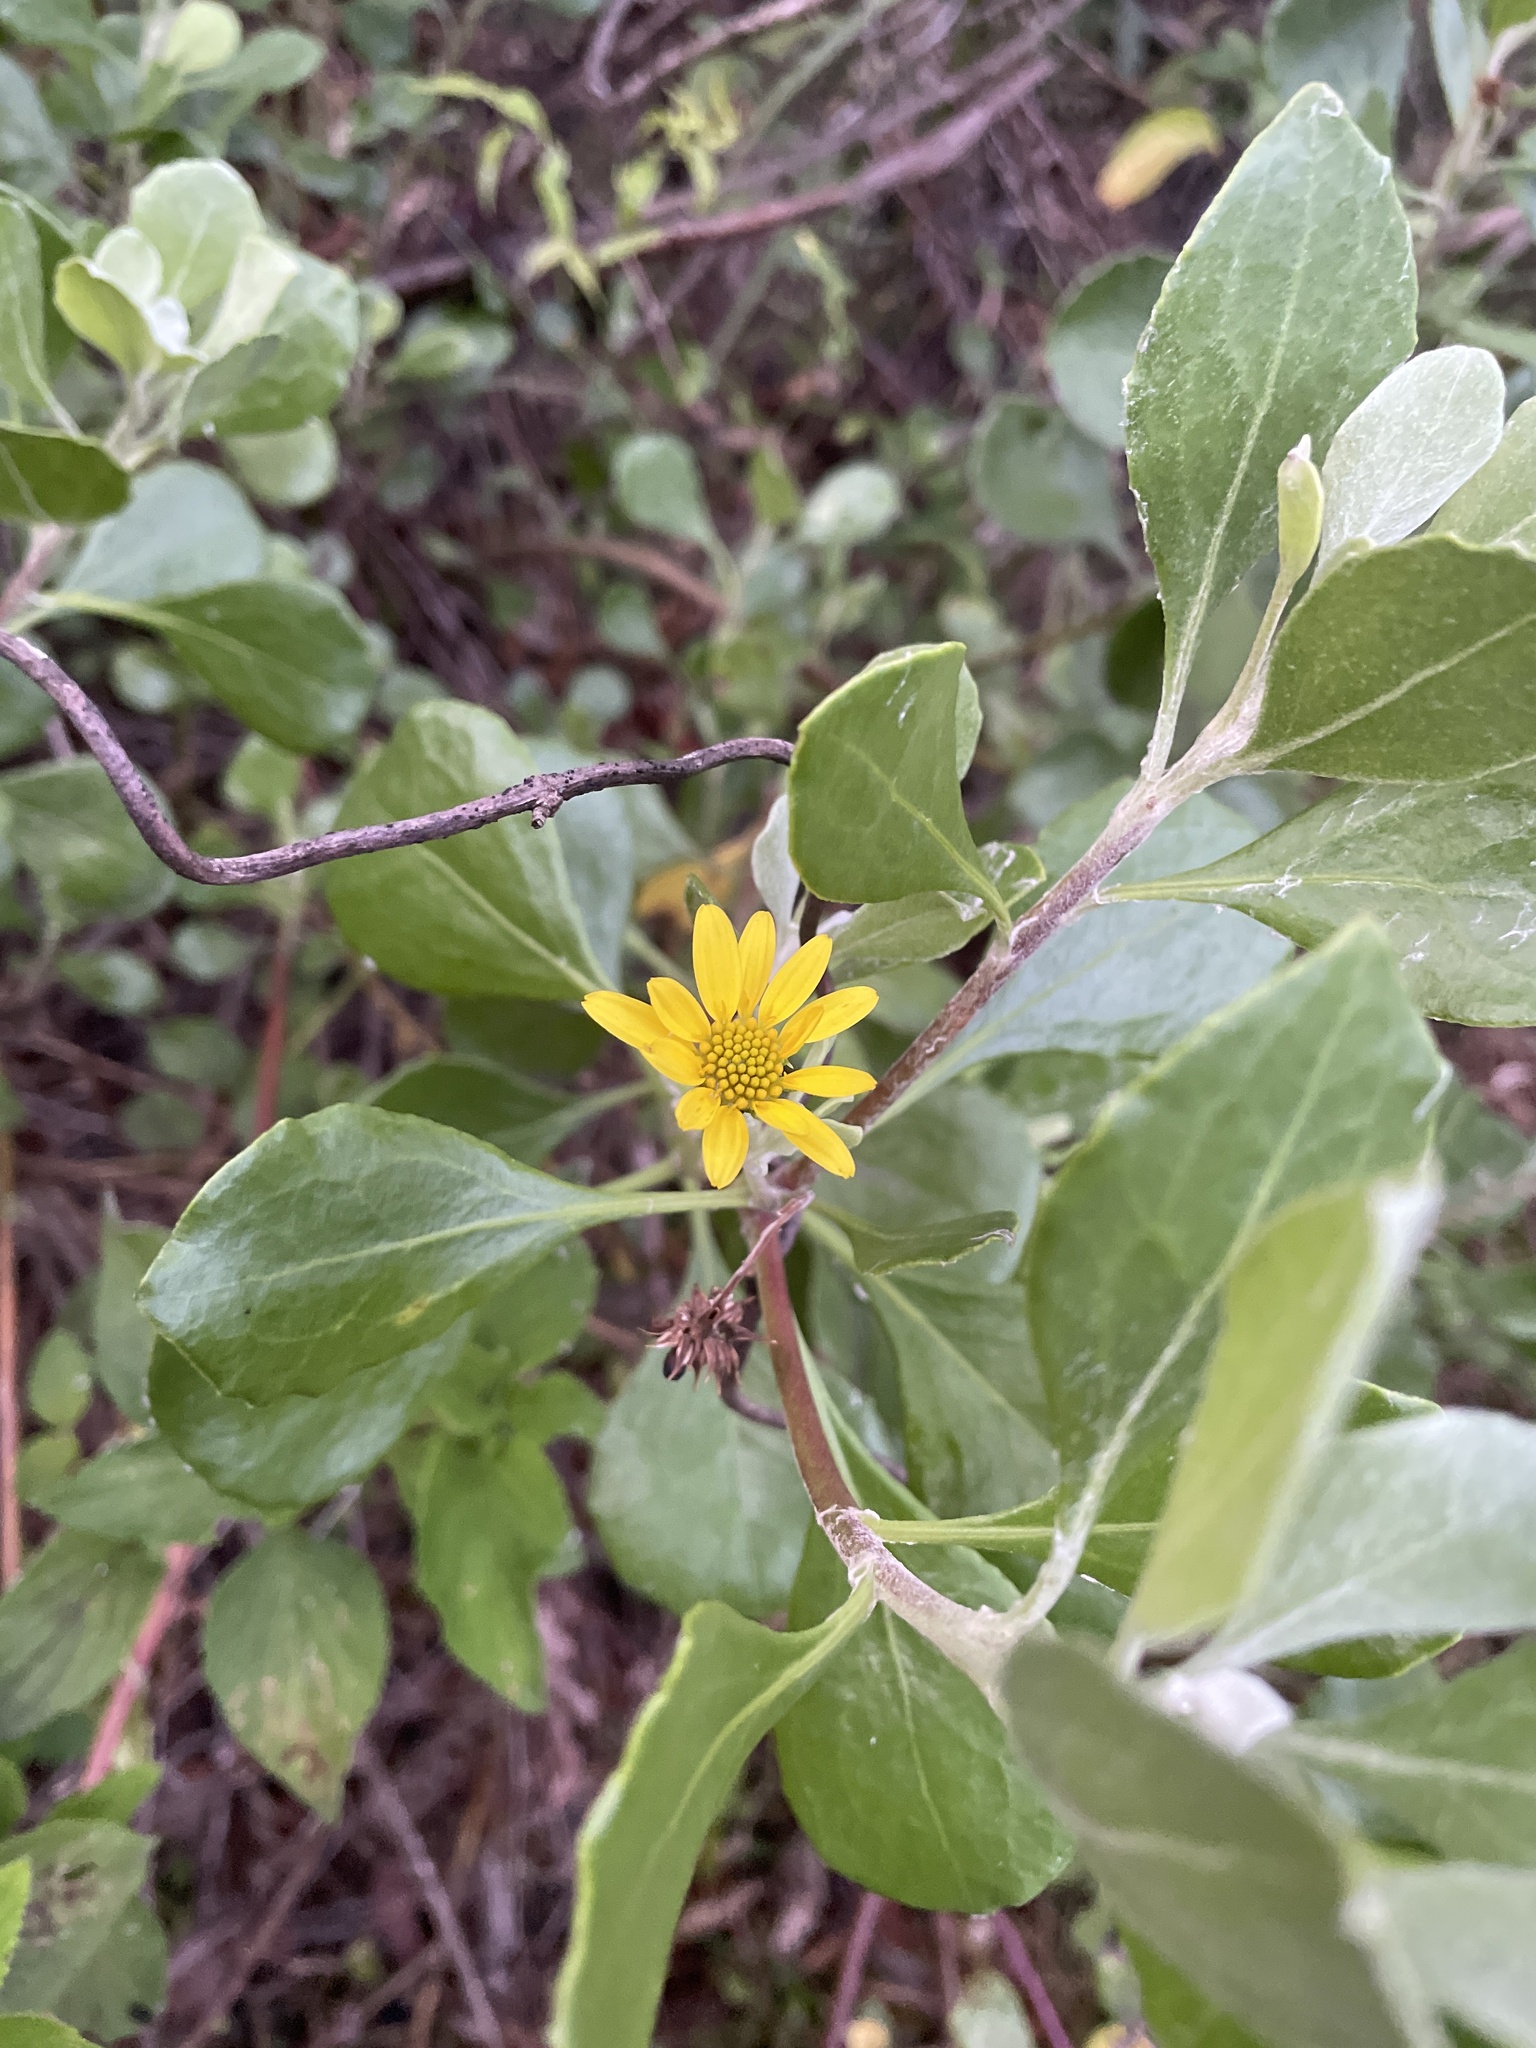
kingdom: Plantae
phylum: Tracheophyta
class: Magnoliopsida
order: Asterales
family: Asteraceae
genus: Osteospermum
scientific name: Osteospermum moniliferum
